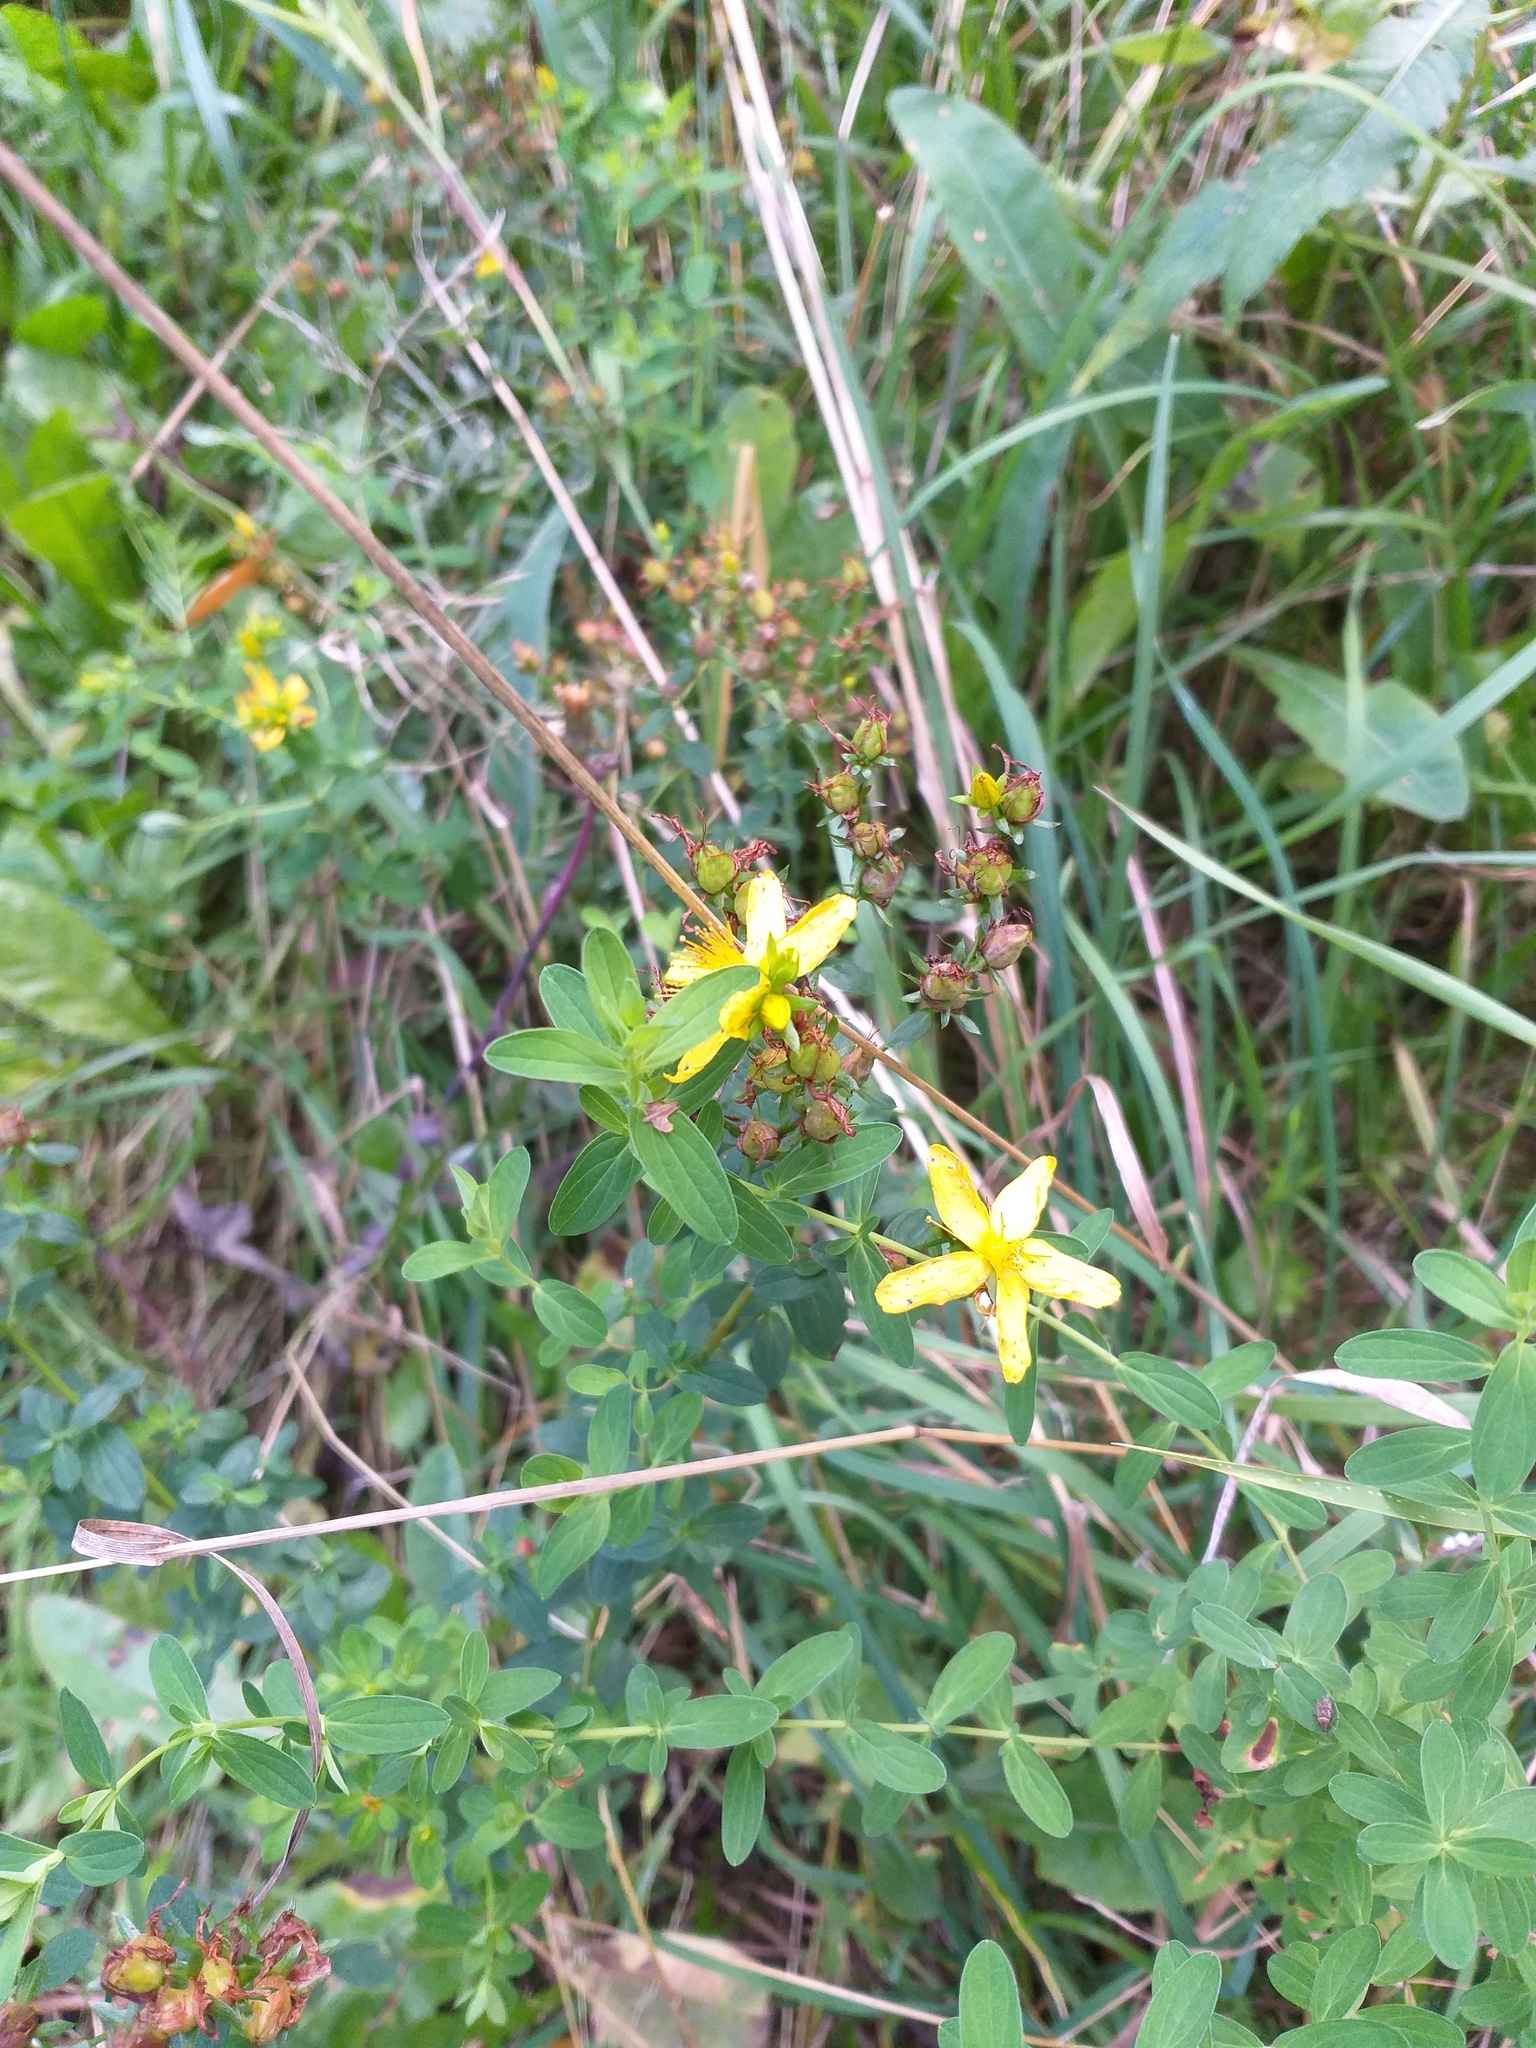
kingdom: Plantae
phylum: Tracheophyta
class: Magnoliopsida
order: Malpighiales
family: Hypericaceae
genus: Hypericum
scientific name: Hypericum perforatum
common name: Common st. johnswort
